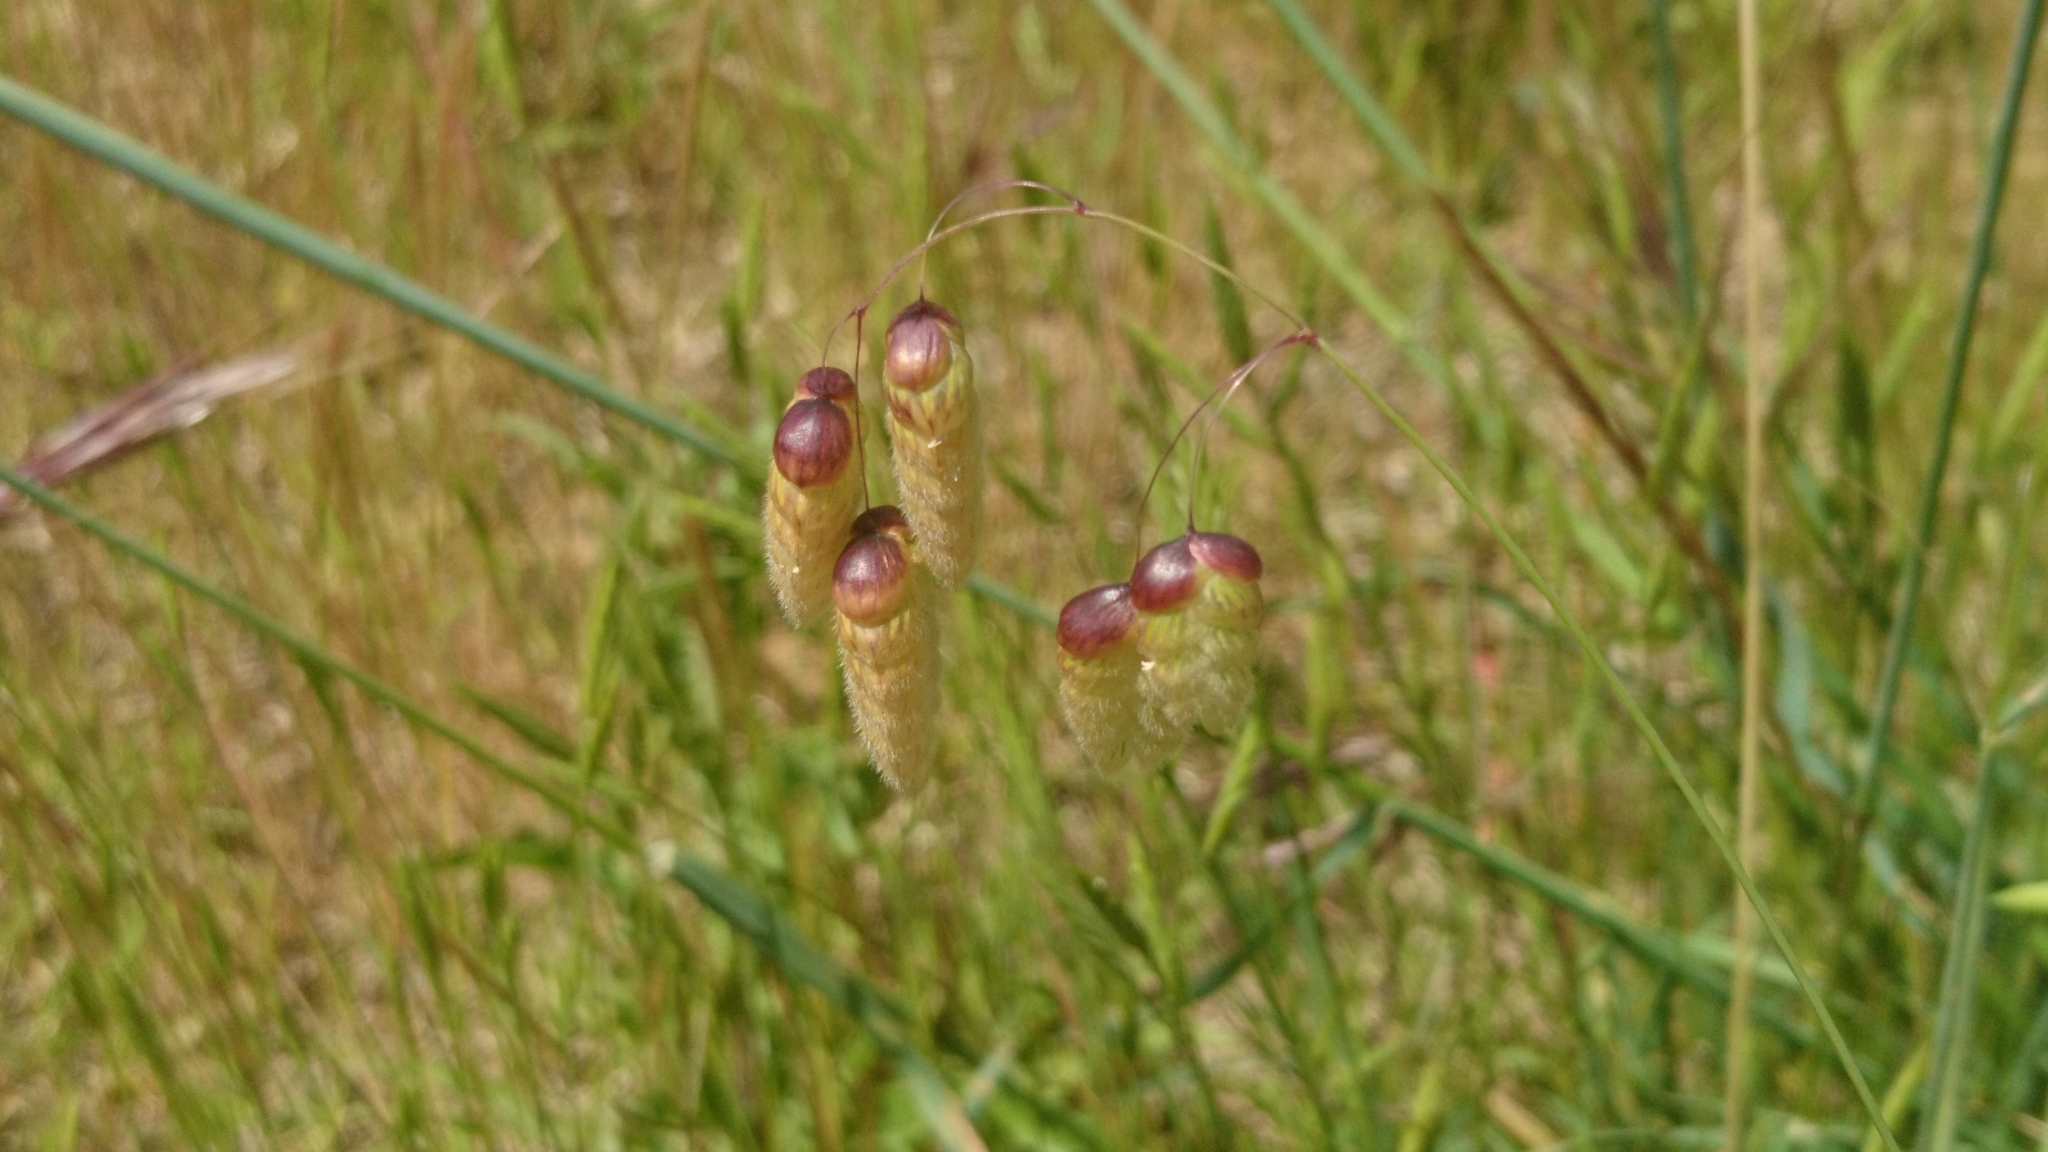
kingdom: Plantae
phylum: Tracheophyta
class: Liliopsida
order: Poales
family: Poaceae
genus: Briza
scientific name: Briza maxima
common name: Big quakinggrass
